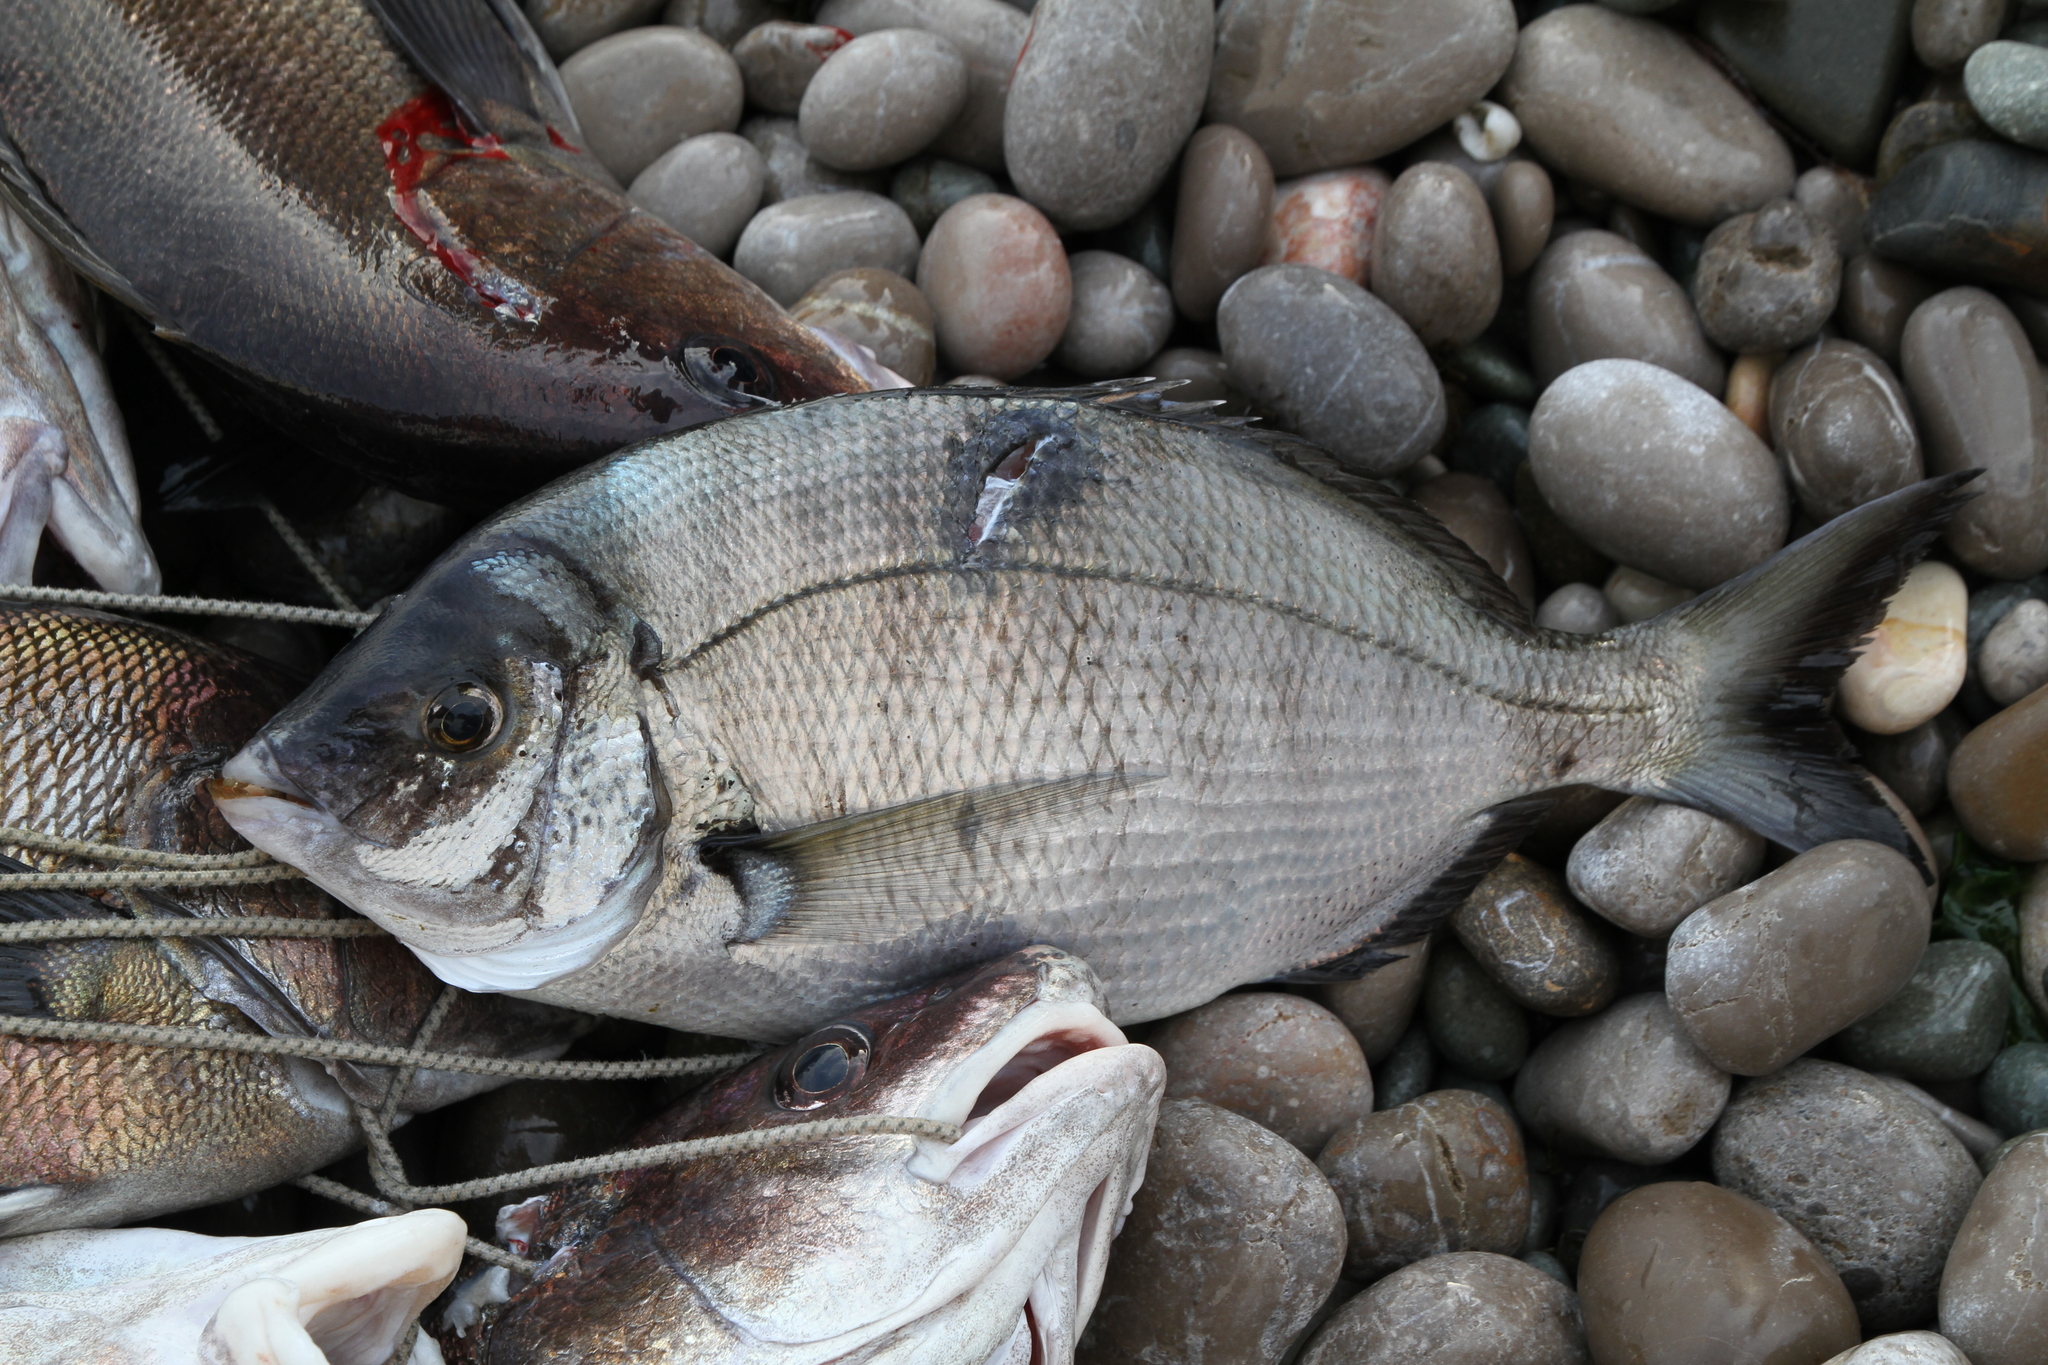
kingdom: Animalia
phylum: Chordata
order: Perciformes
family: Sparidae
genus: Diplodus
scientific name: Diplodus puntazzo
